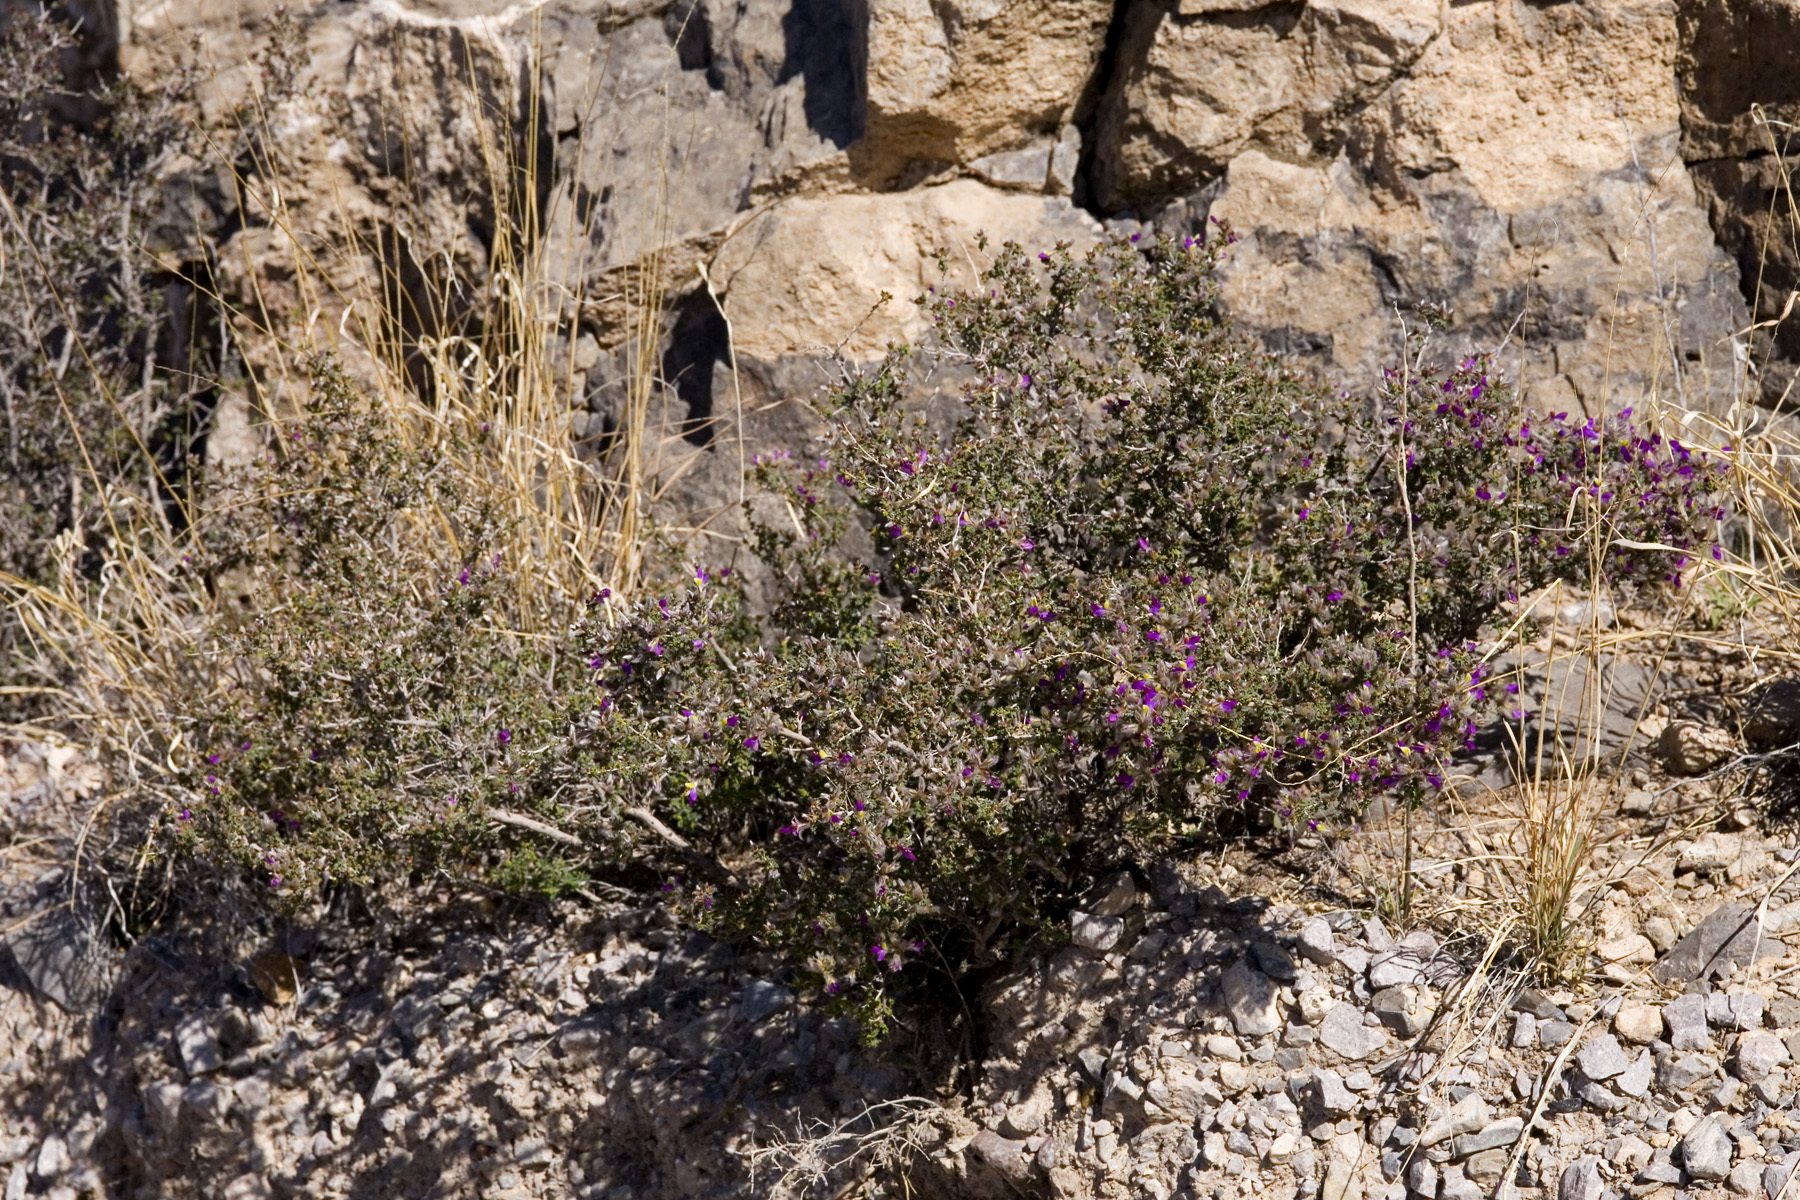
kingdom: Plantae
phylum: Tracheophyta
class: Magnoliopsida
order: Fabales
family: Fabaceae
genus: Dalea
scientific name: Dalea formosa
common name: Feather-plume dalea
